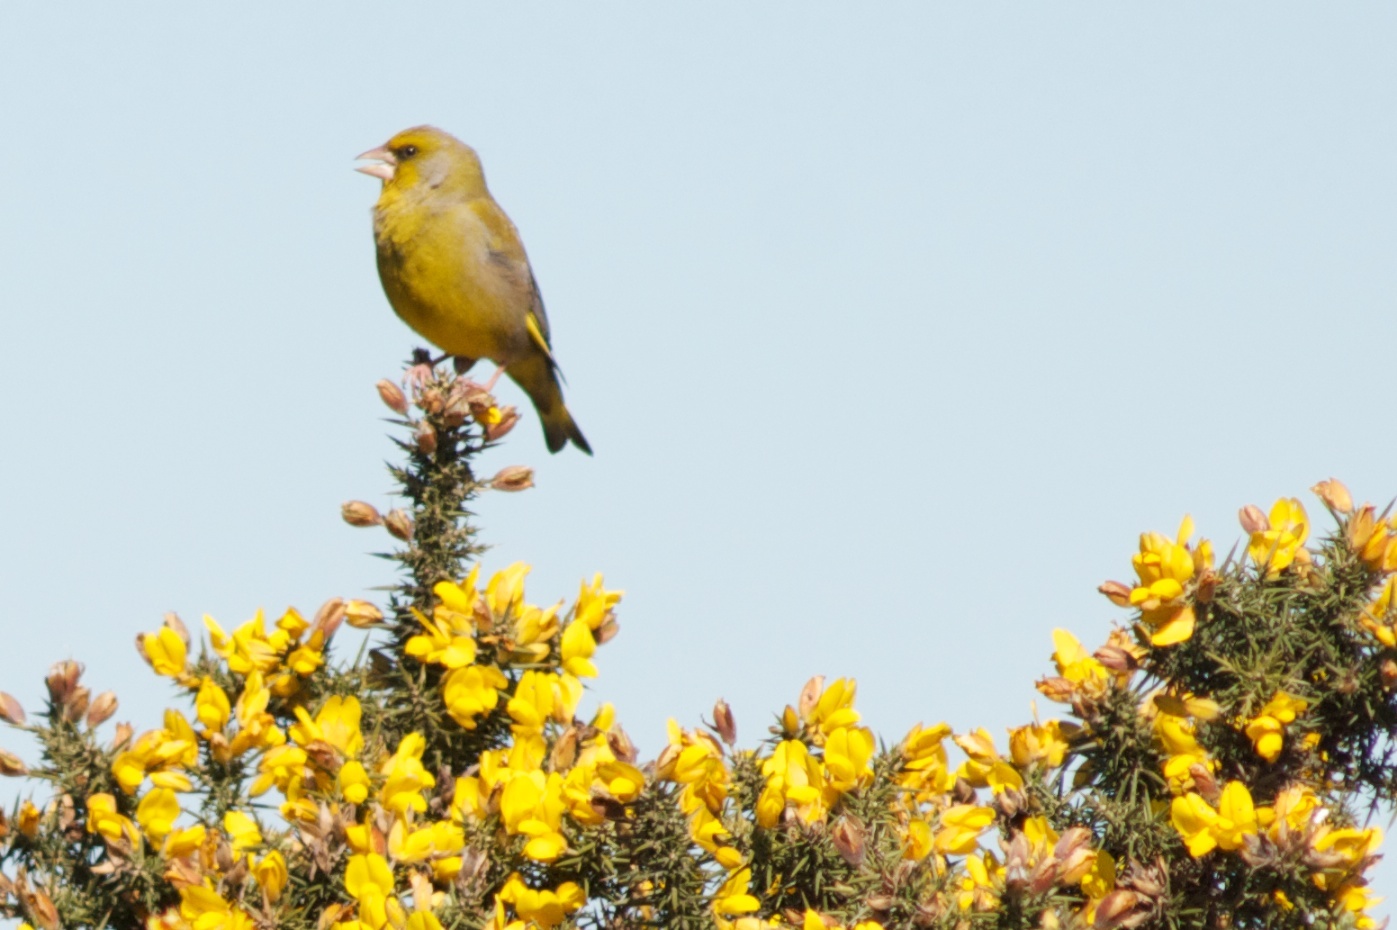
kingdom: Plantae
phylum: Tracheophyta
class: Liliopsida
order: Poales
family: Poaceae
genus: Chloris
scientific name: Chloris chloris
